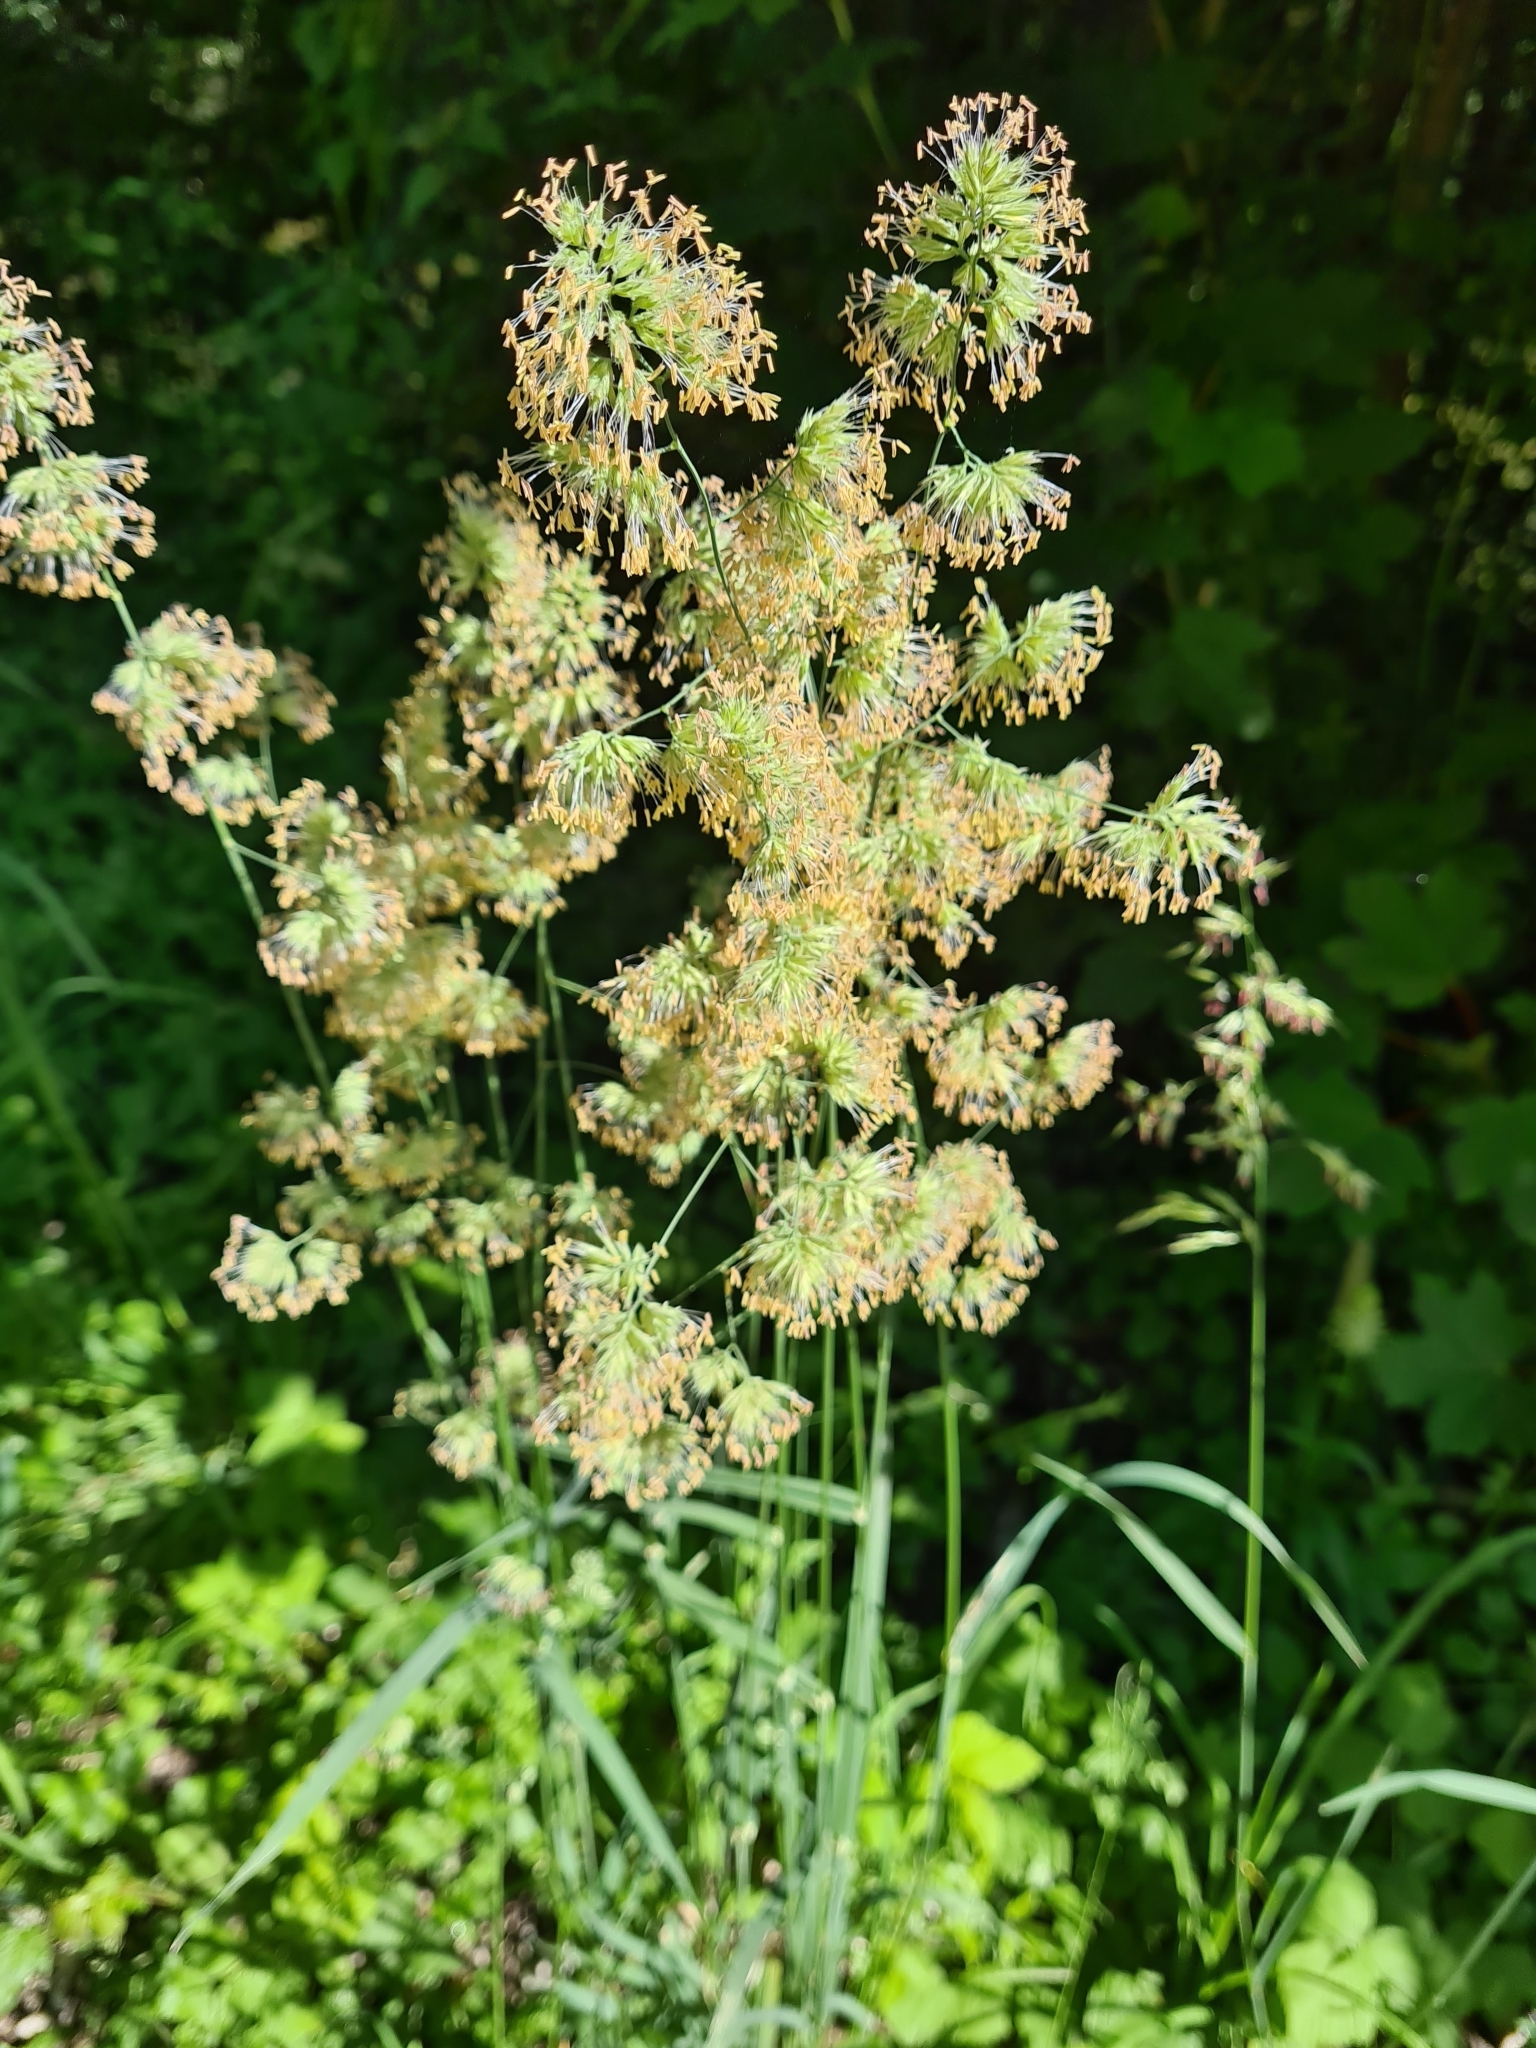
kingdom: Plantae
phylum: Tracheophyta
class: Liliopsida
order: Poales
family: Poaceae
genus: Dactylis
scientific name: Dactylis glomerata
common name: Orchardgrass
